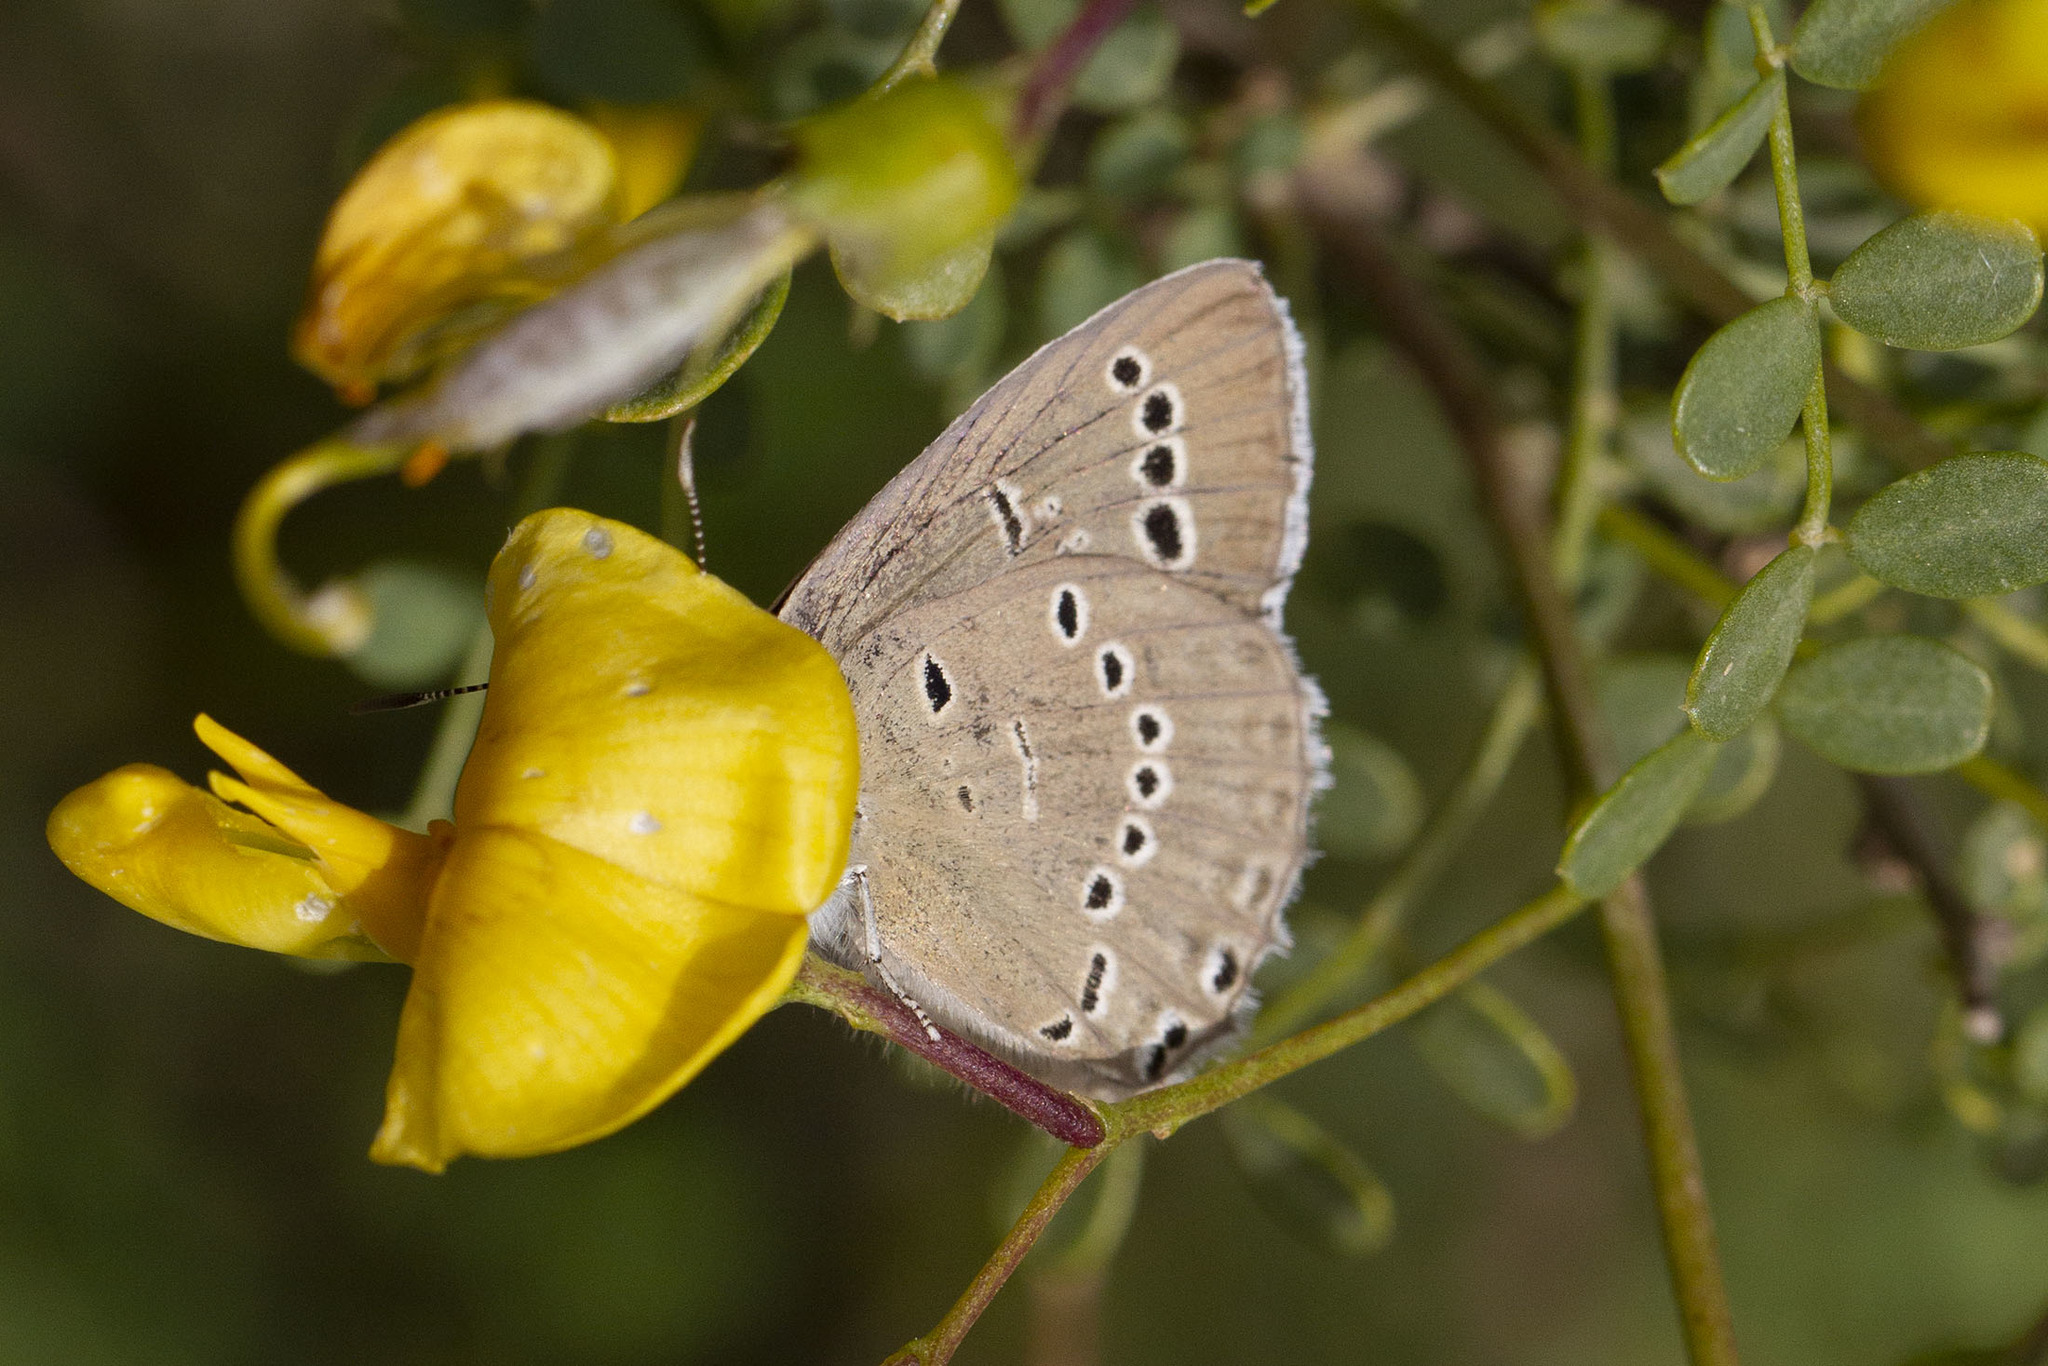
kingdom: Animalia
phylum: Arthropoda
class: Insecta
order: Lepidoptera
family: Lycaenidae
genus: Iolana
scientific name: Iolana alfierii
